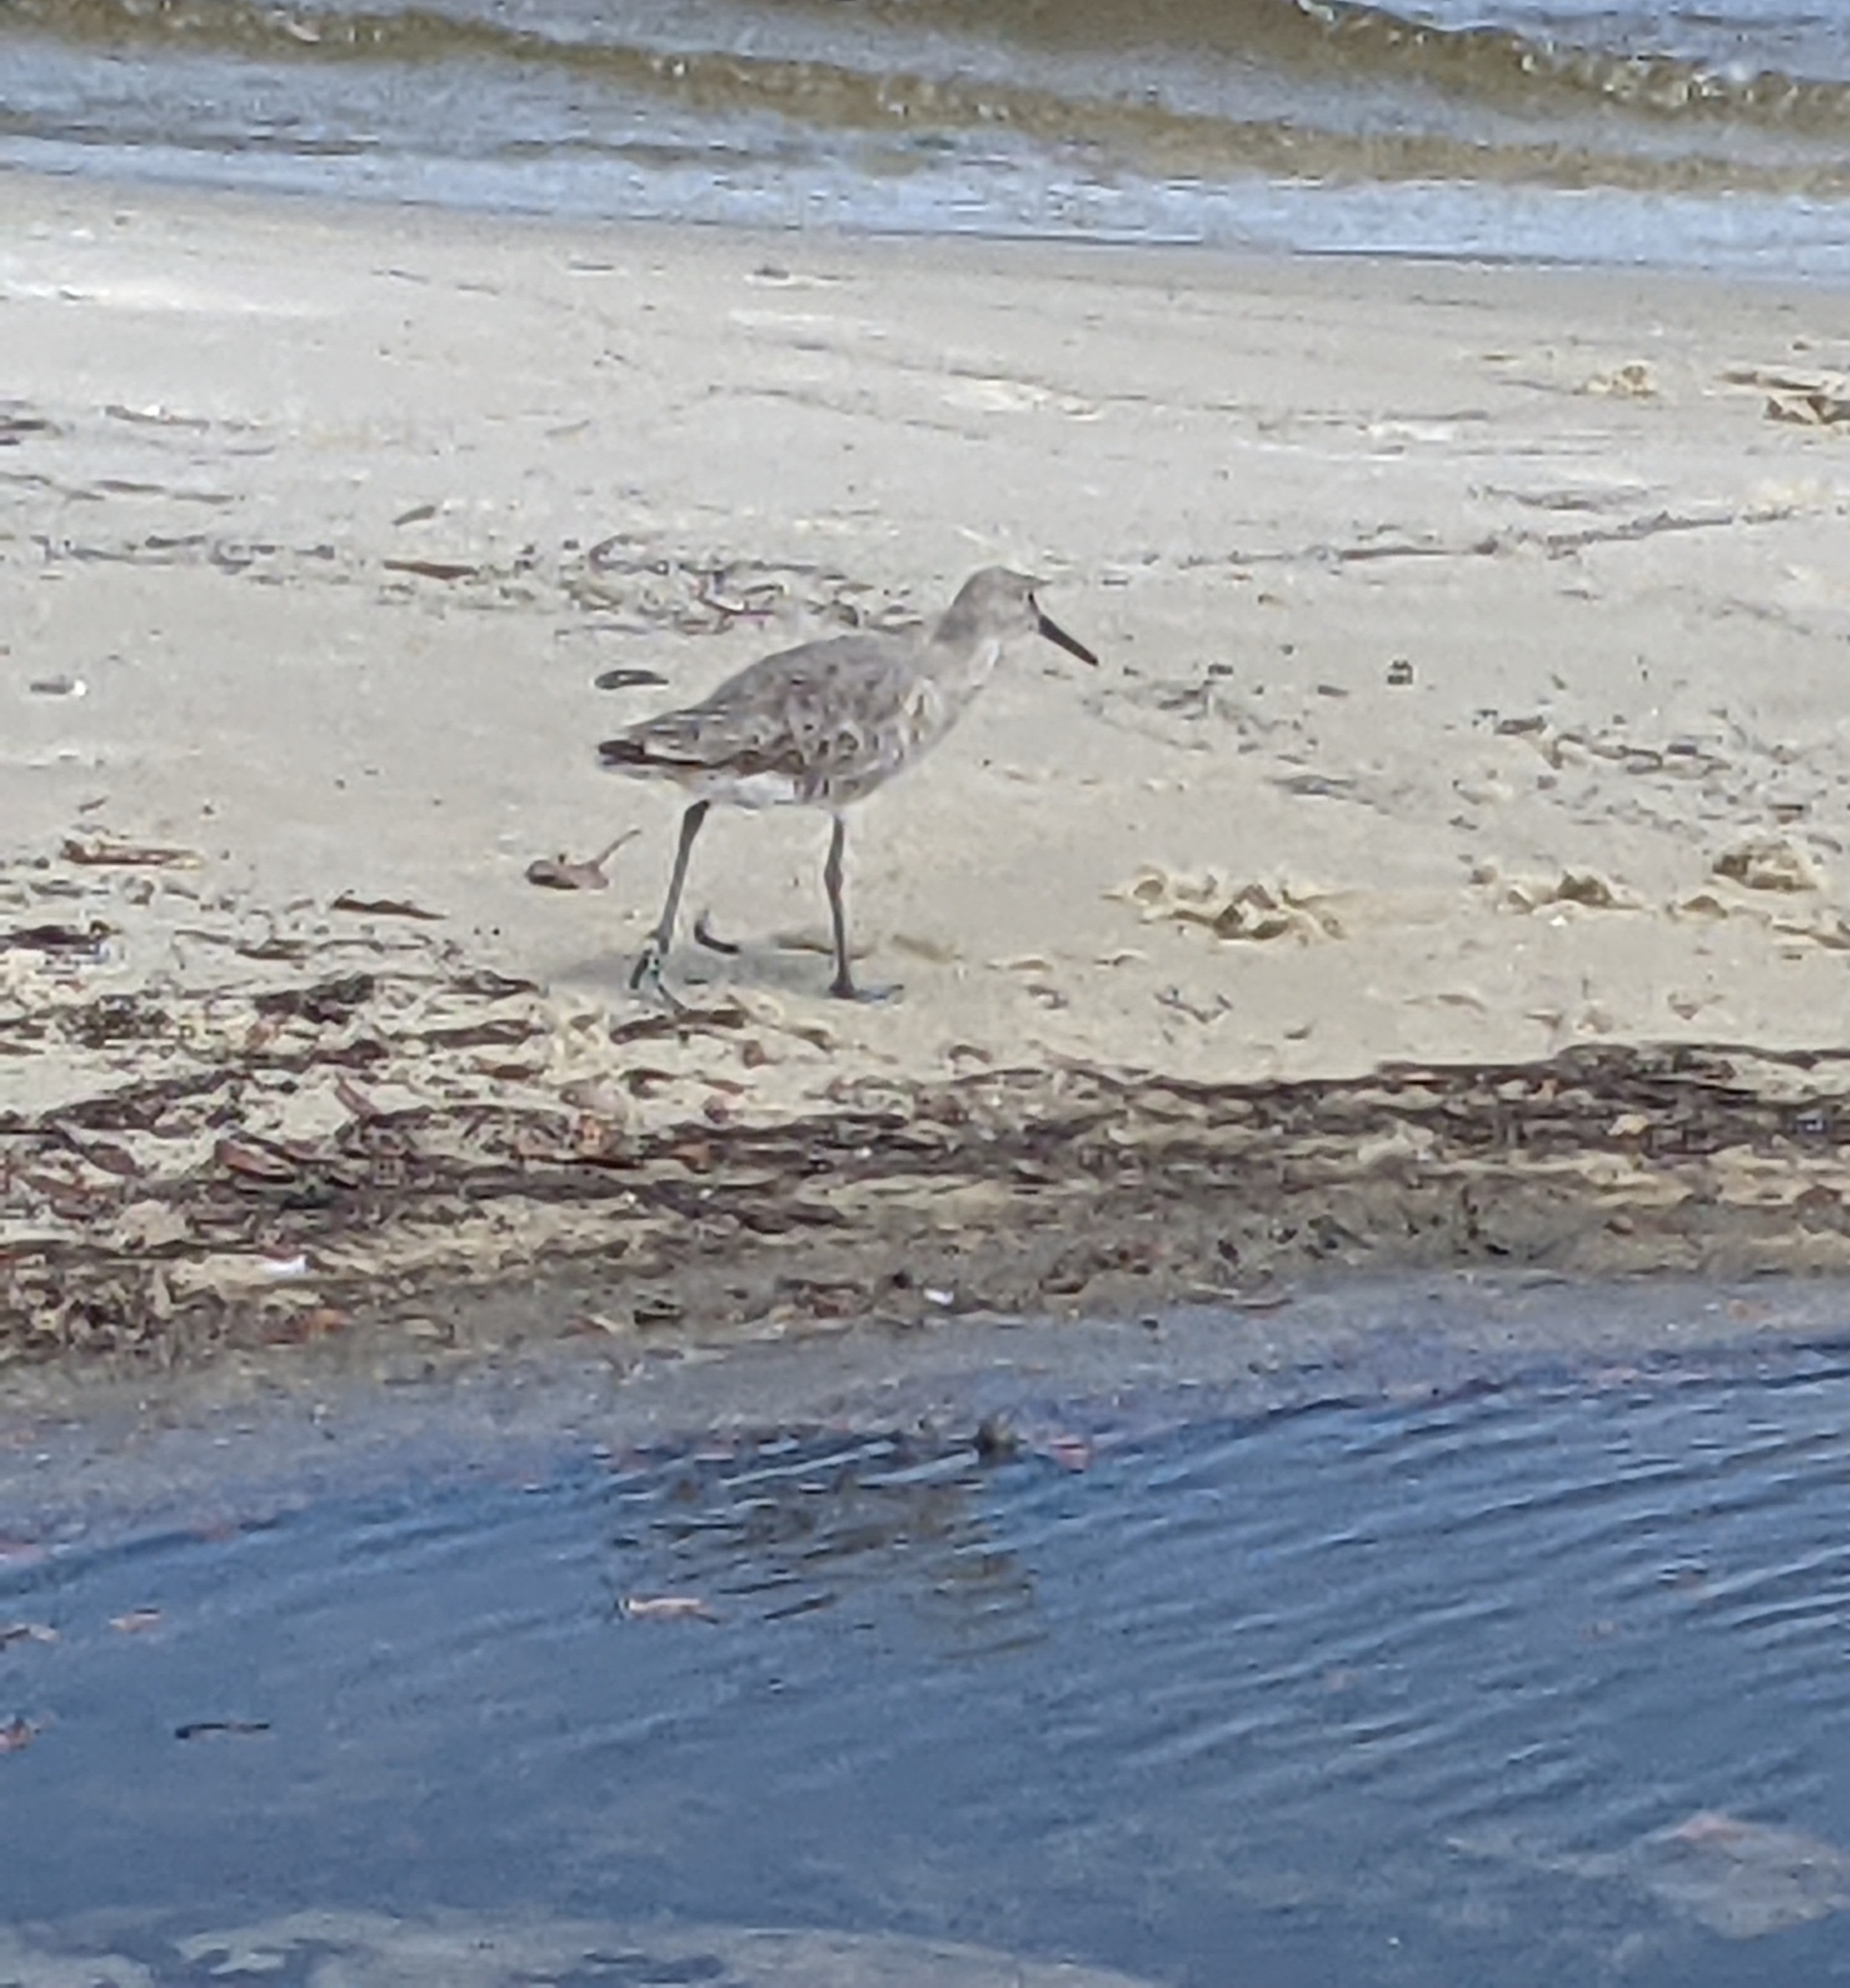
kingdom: Animalia
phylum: Chordata
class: Aves
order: Charadriiformes
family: Scolopacidae
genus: Tringa
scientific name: Tringa semipalmata
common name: Willet
